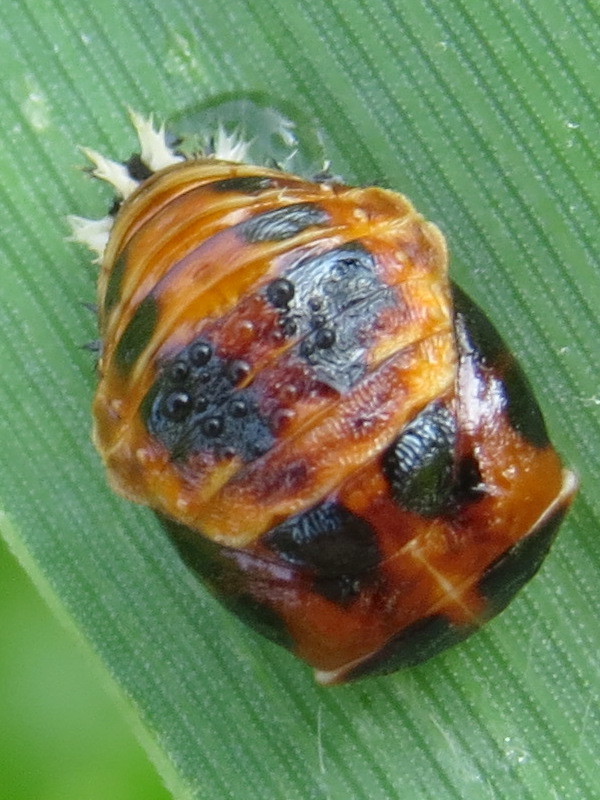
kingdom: Animalia
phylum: Arthropoda
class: Insecta
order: Coleoptera
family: Coccinellidae
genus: Harmonia
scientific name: Harmonia axyridis
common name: Harlequin ladybird
